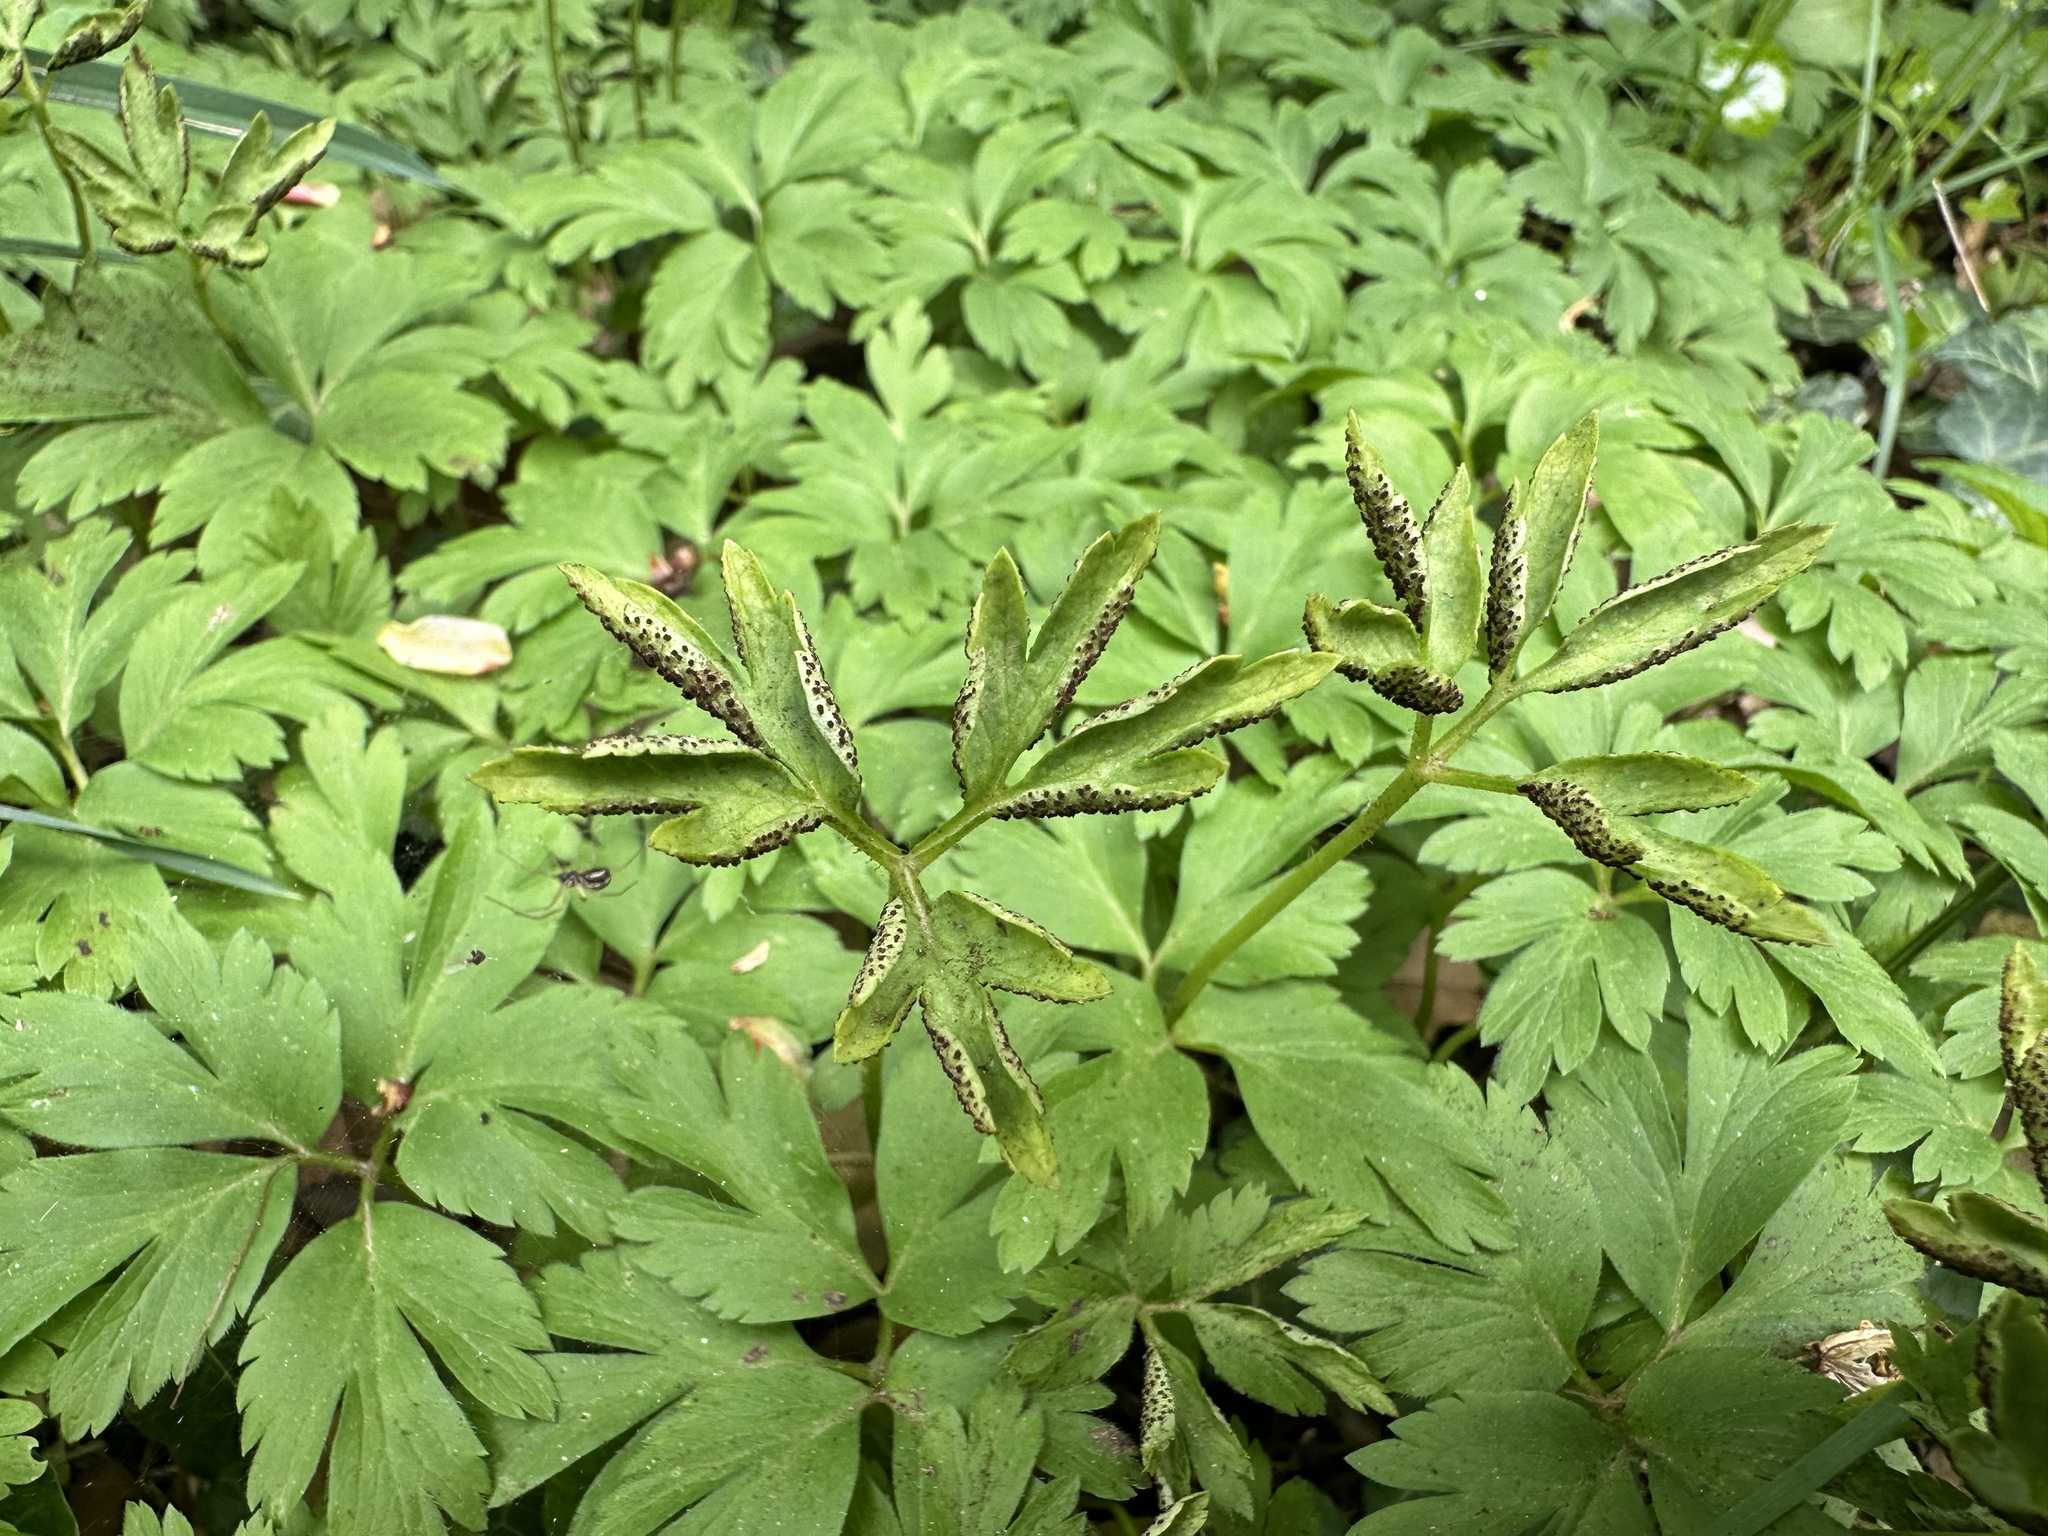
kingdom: Fungi
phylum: Basidiomycota
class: Pucciniomycetes
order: Pucciniales
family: Tranzscheliaceae
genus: Tranzschelia
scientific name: Tranzschelia anemones
